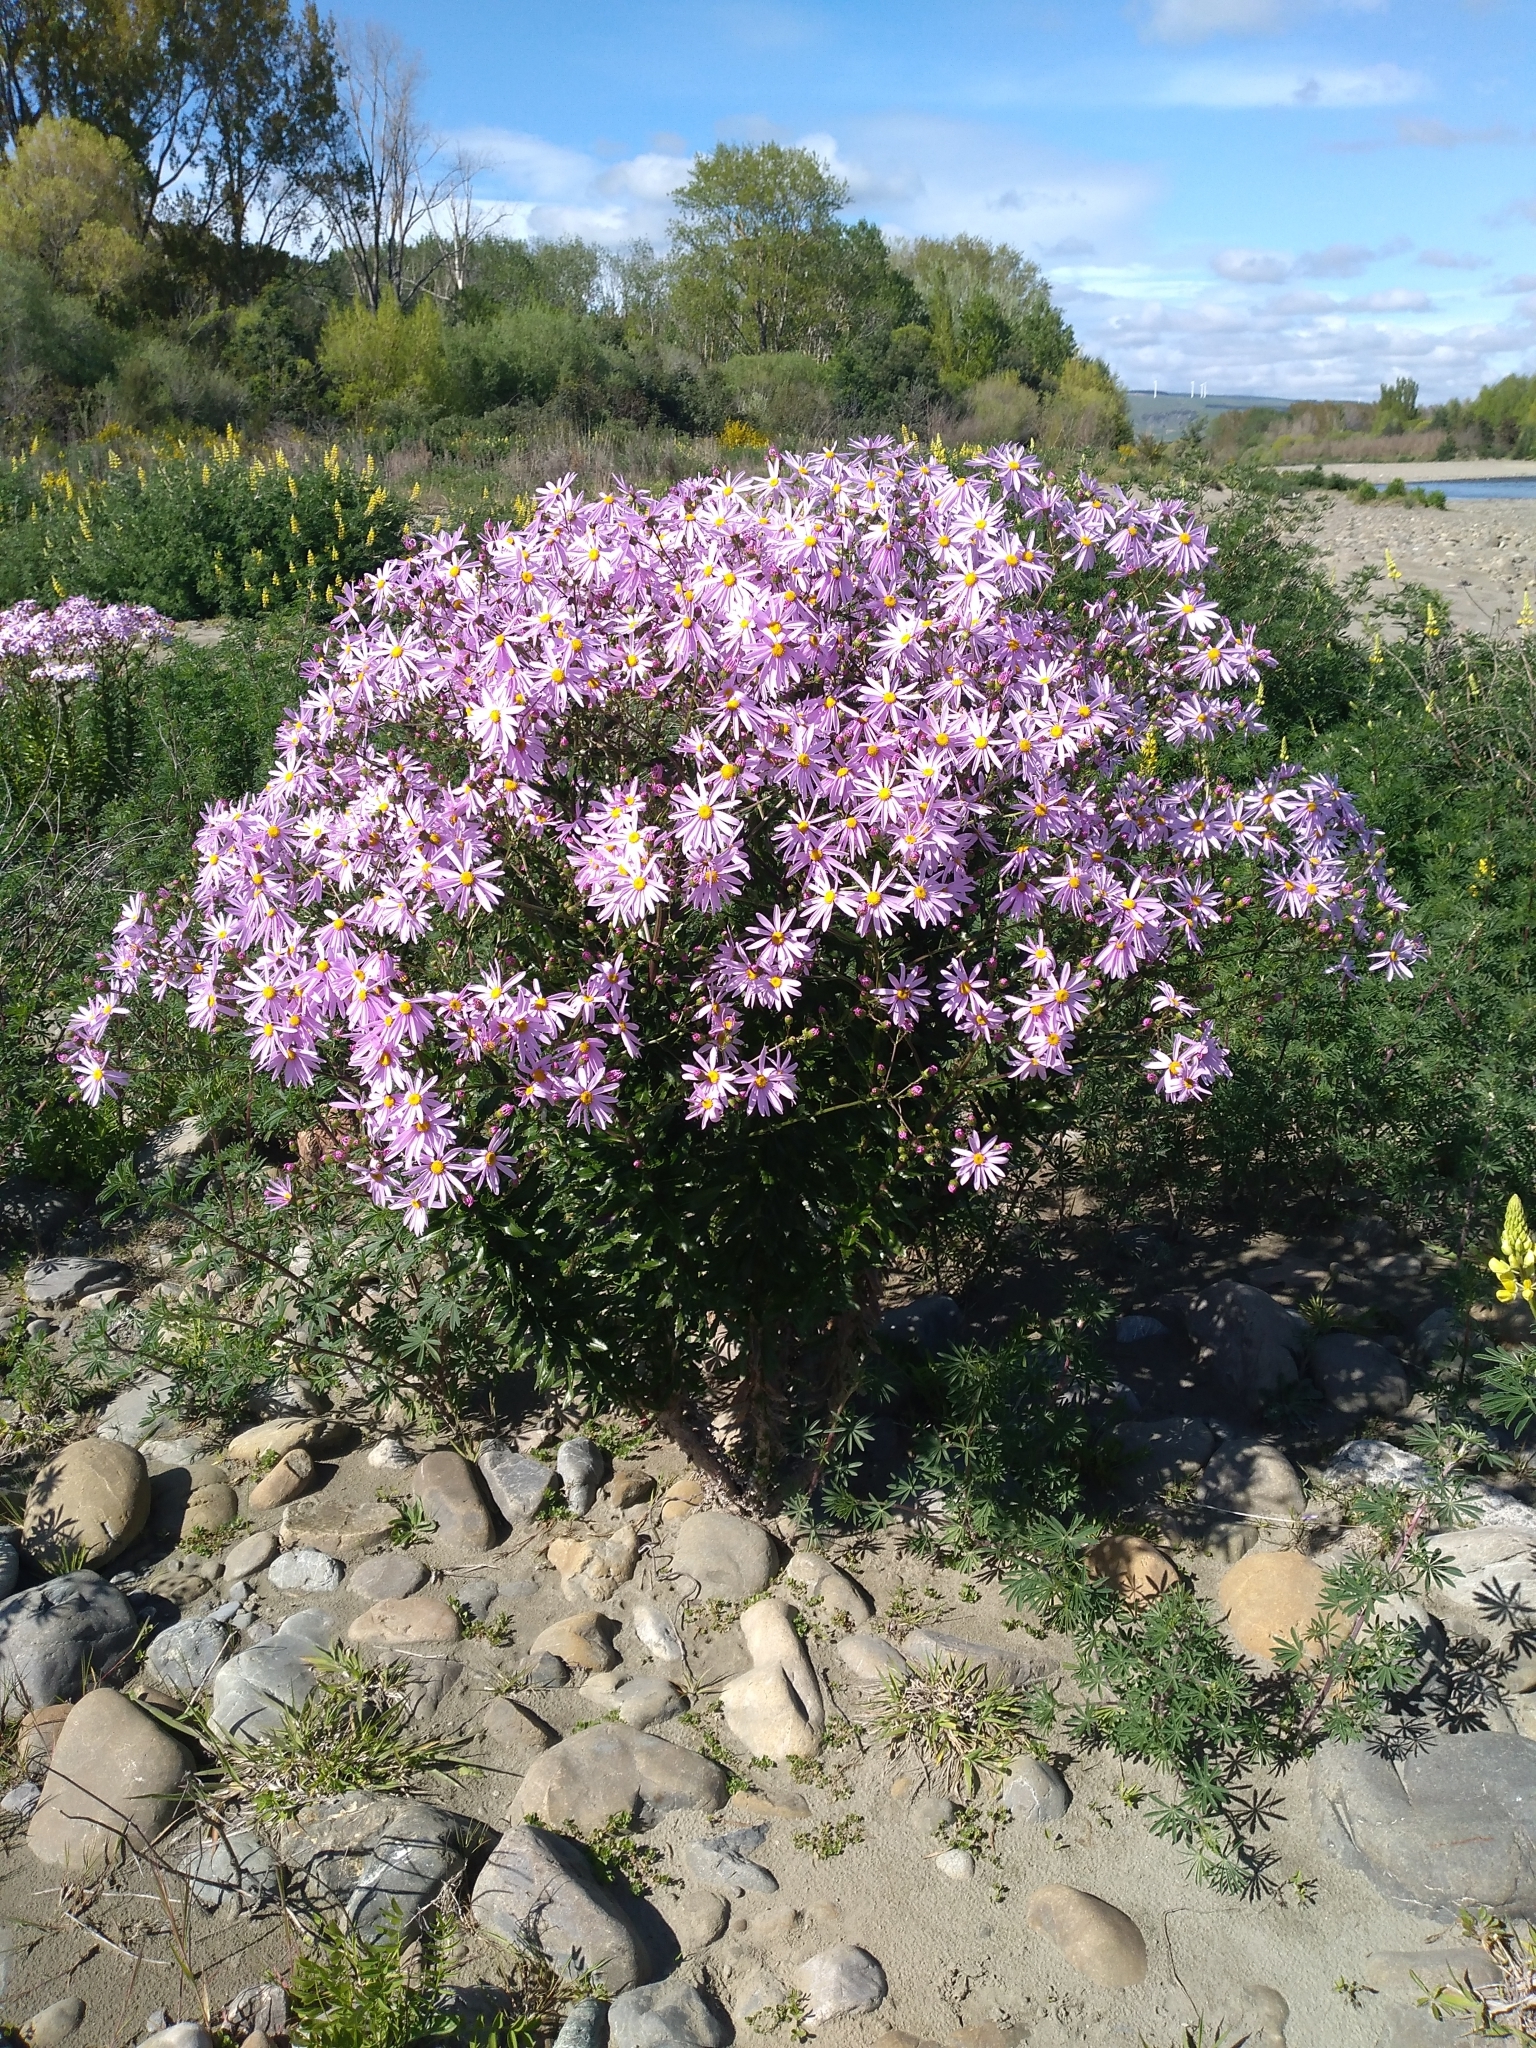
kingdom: Plantae
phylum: Tracheophyta
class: Magnoliopsida
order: Asterales
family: Asteraceae
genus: Senecio
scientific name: Senecio glastifolius
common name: Woad-leaved ragwort
